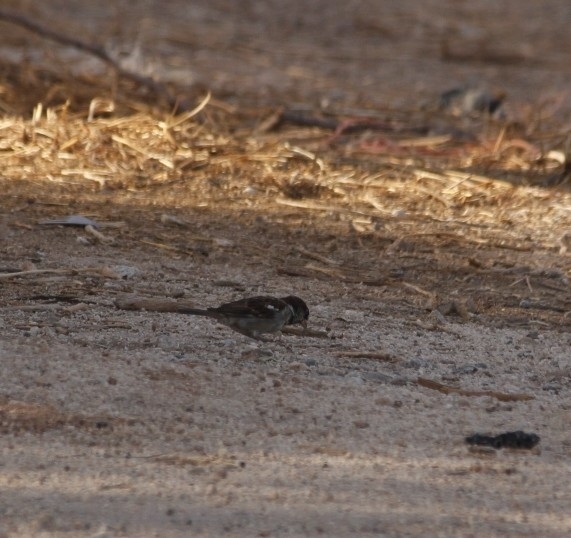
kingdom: Animalia
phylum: Chordata
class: Aves
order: Passeriformes
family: Passeridae
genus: Passer
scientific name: Passer domesticus
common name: House sparrow
